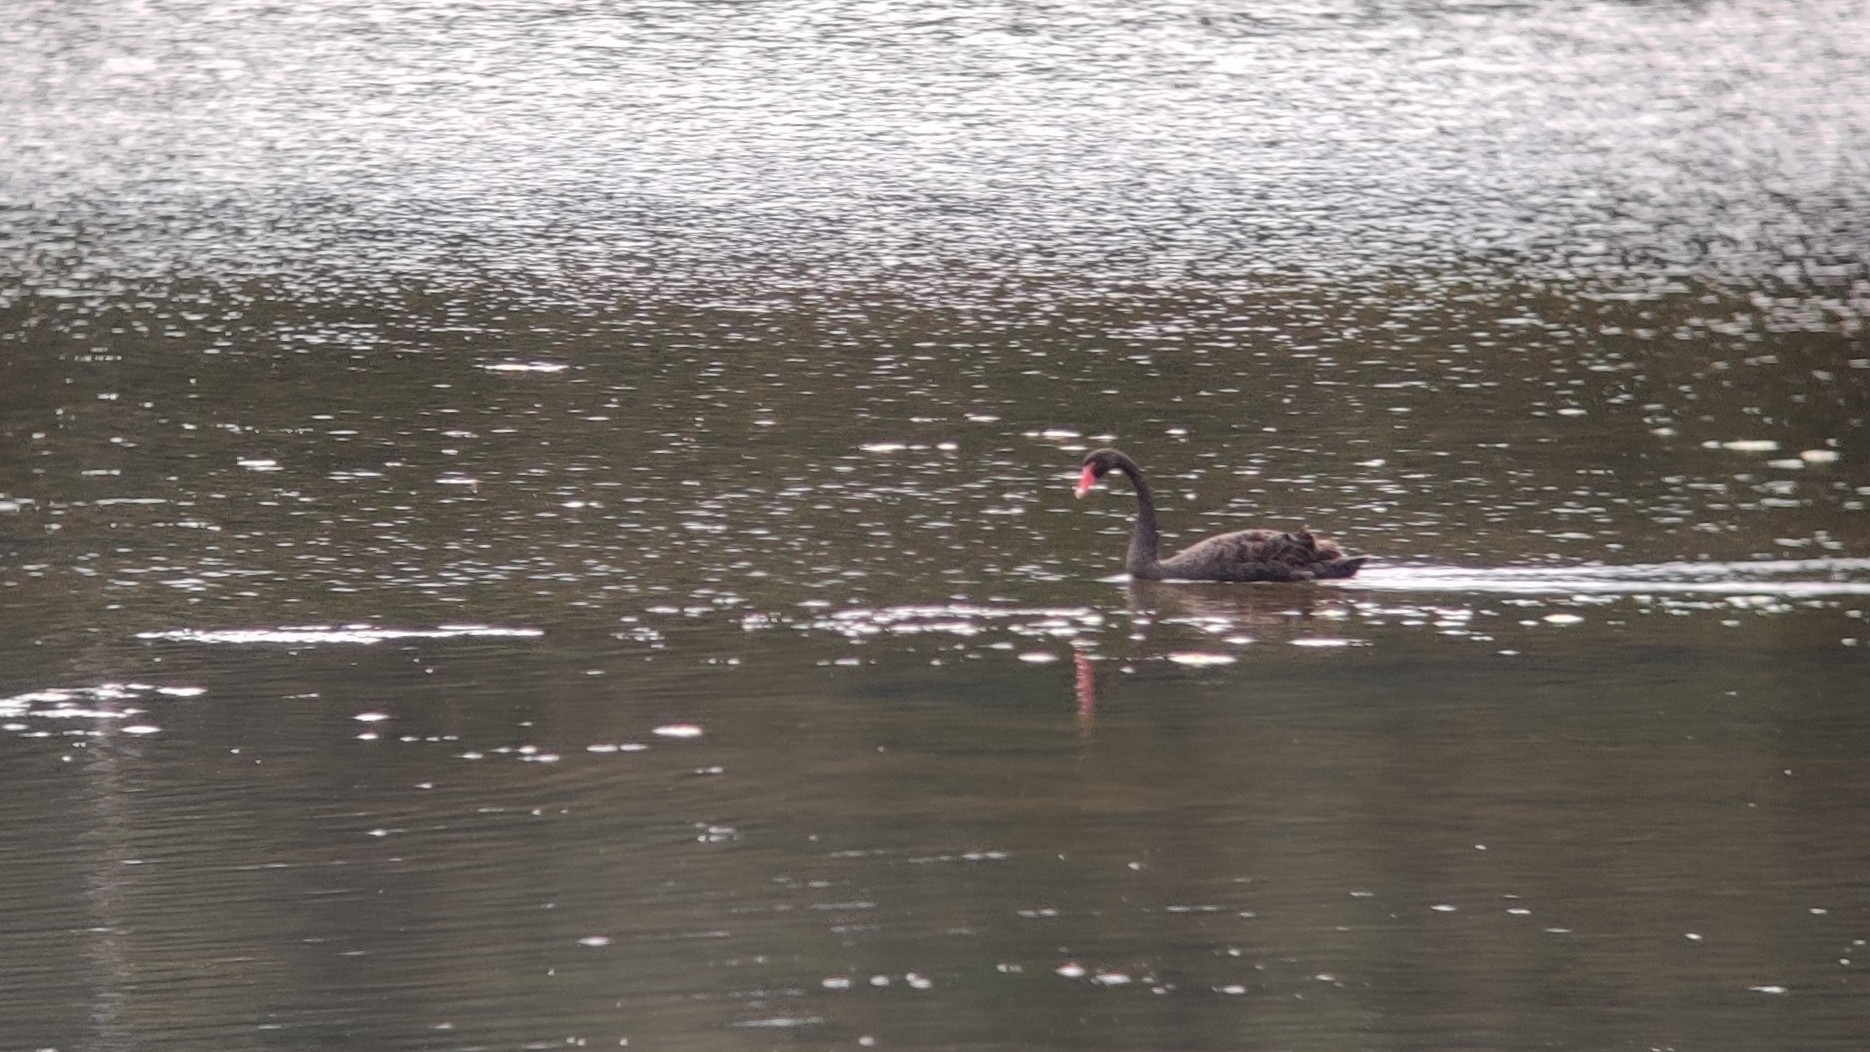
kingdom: Animalia
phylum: Chordata
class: Aves
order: Anseriformes
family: Anatidae
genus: Cygnus
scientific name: Cygnus atratus
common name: Black swan
